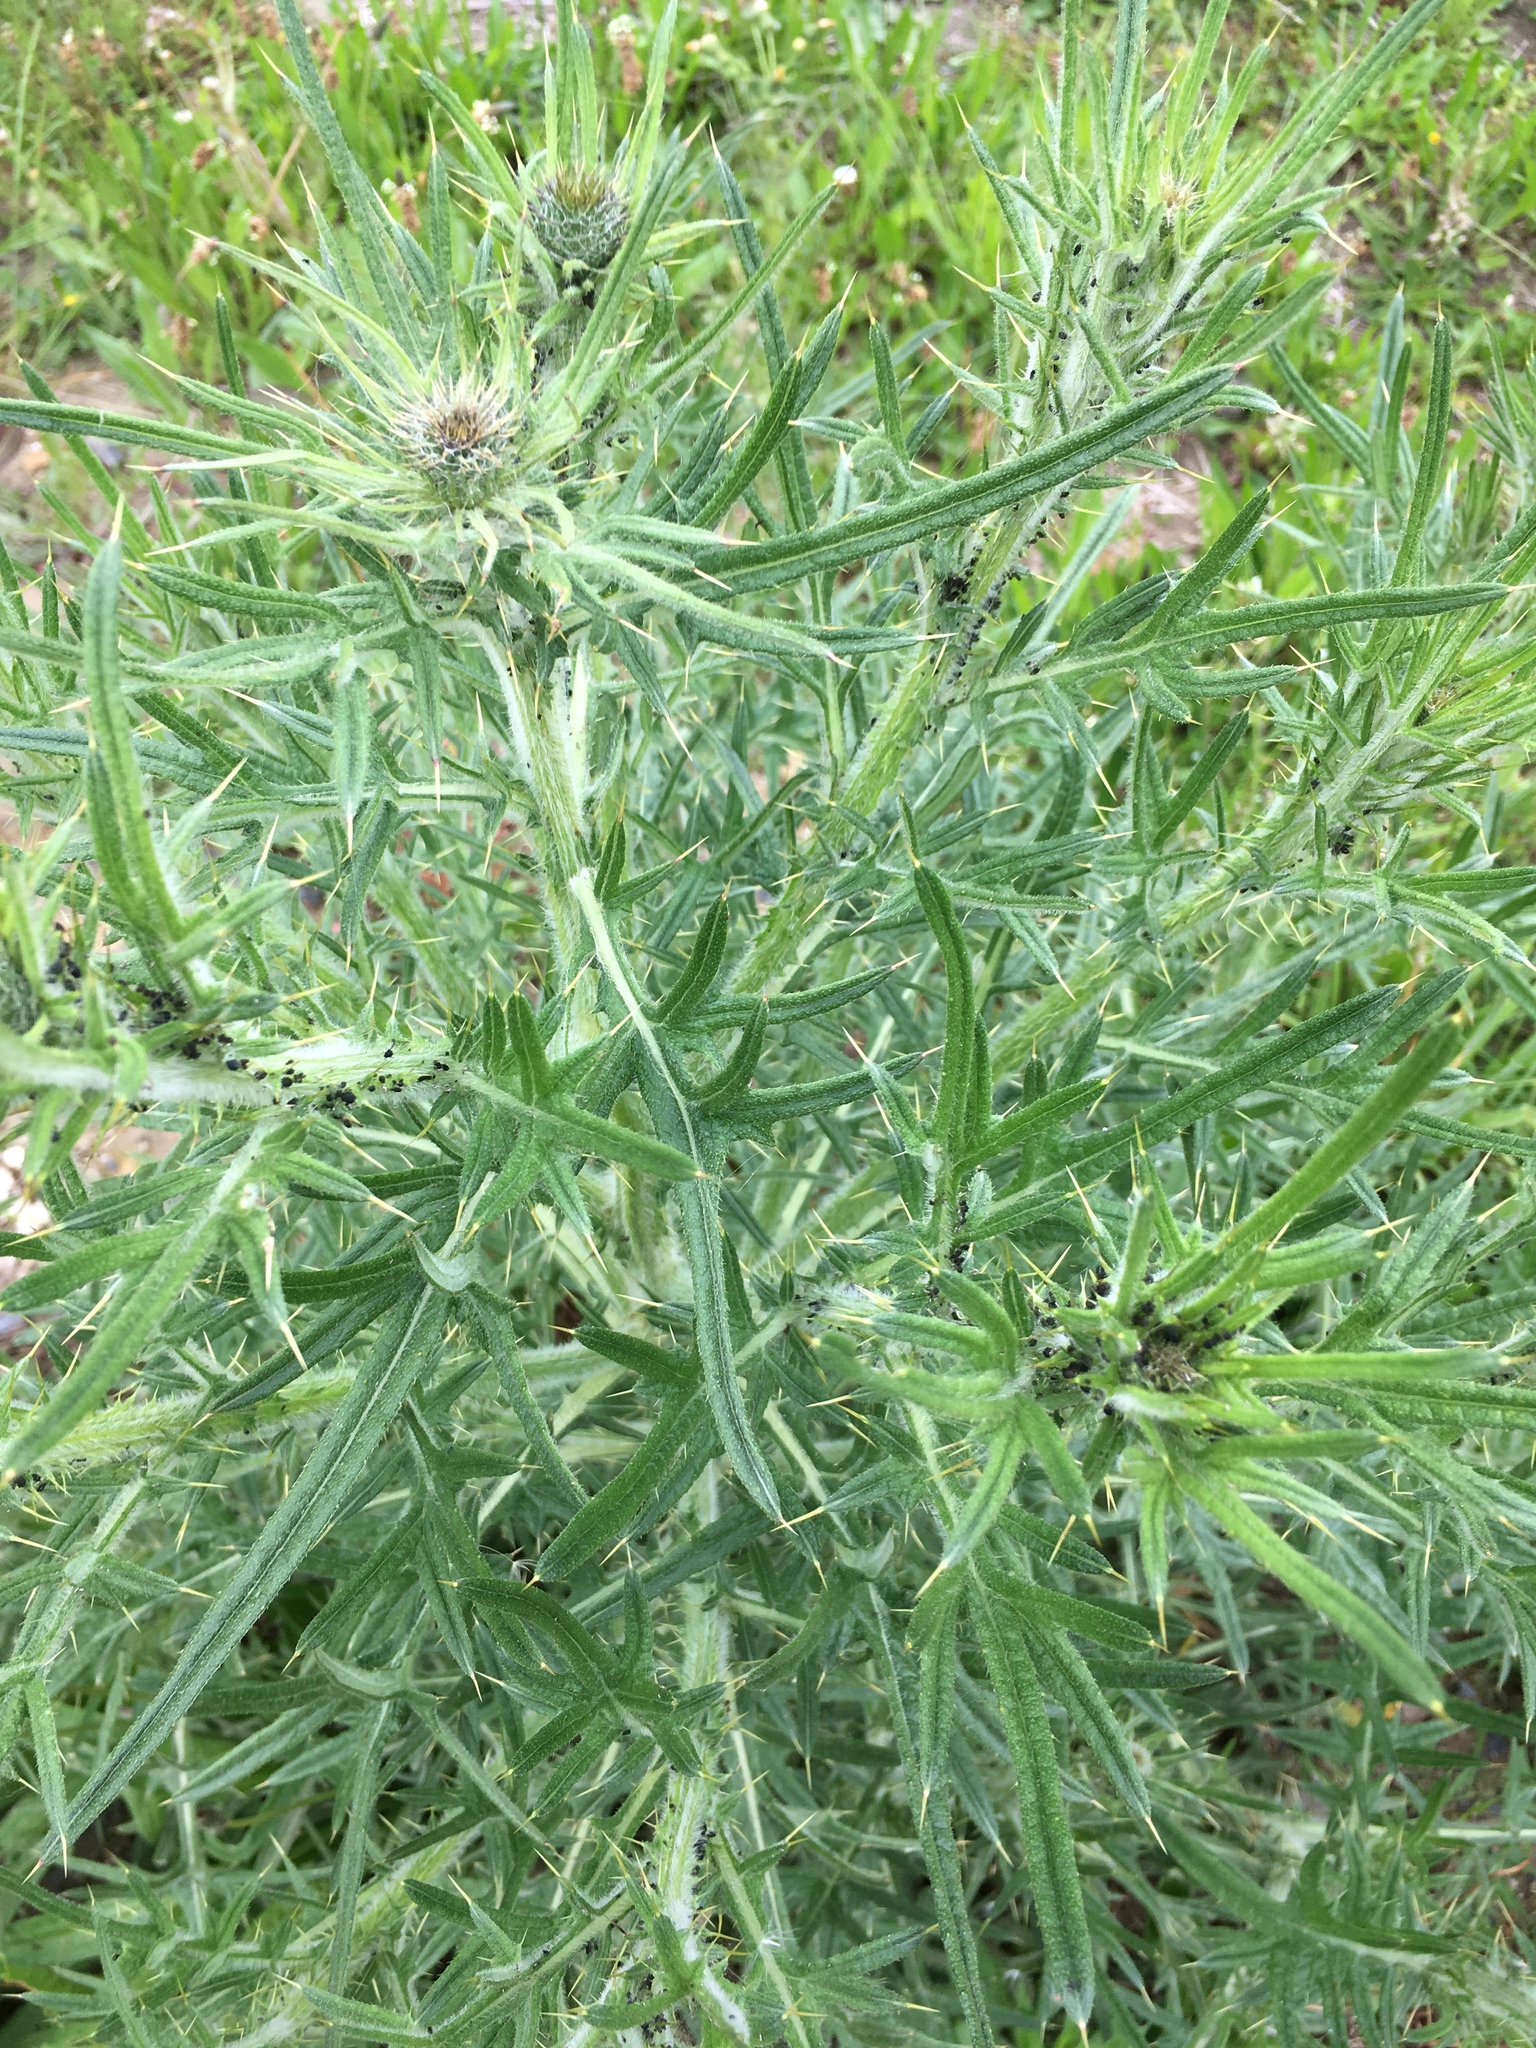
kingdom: Plantae
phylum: Tracheophyta
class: Magnoliopsida
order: Asterales
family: Asteraceae
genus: Cirsium
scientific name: Cirsium vulgare
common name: Bull thistle
